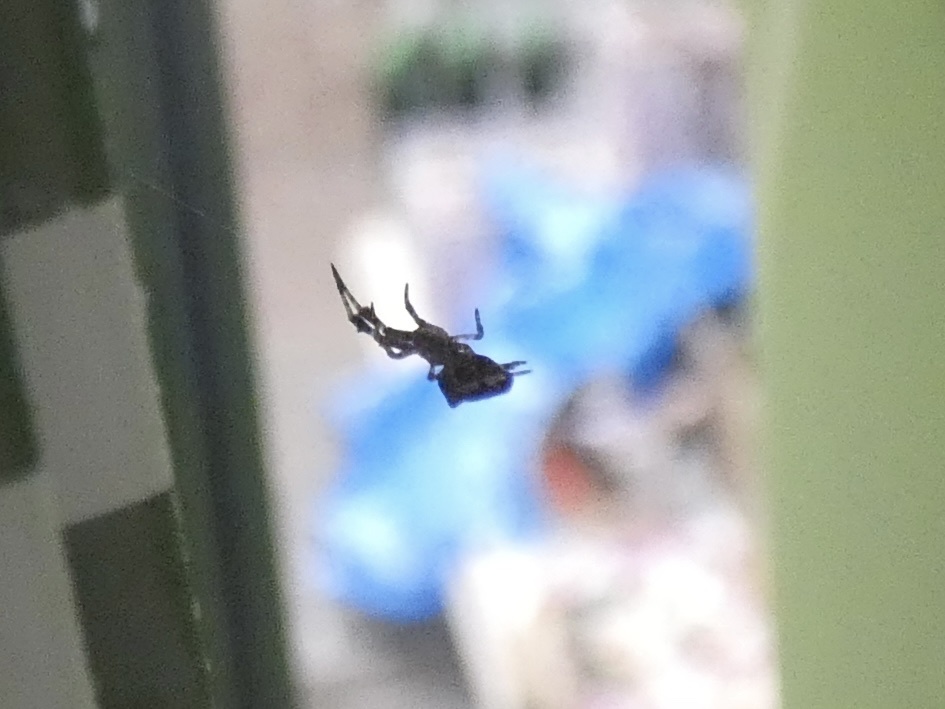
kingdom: Animalia
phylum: Arthropoda
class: Arachnida
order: Araneae
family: Uloboridae
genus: Uloborus
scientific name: Uloborus plumipes
